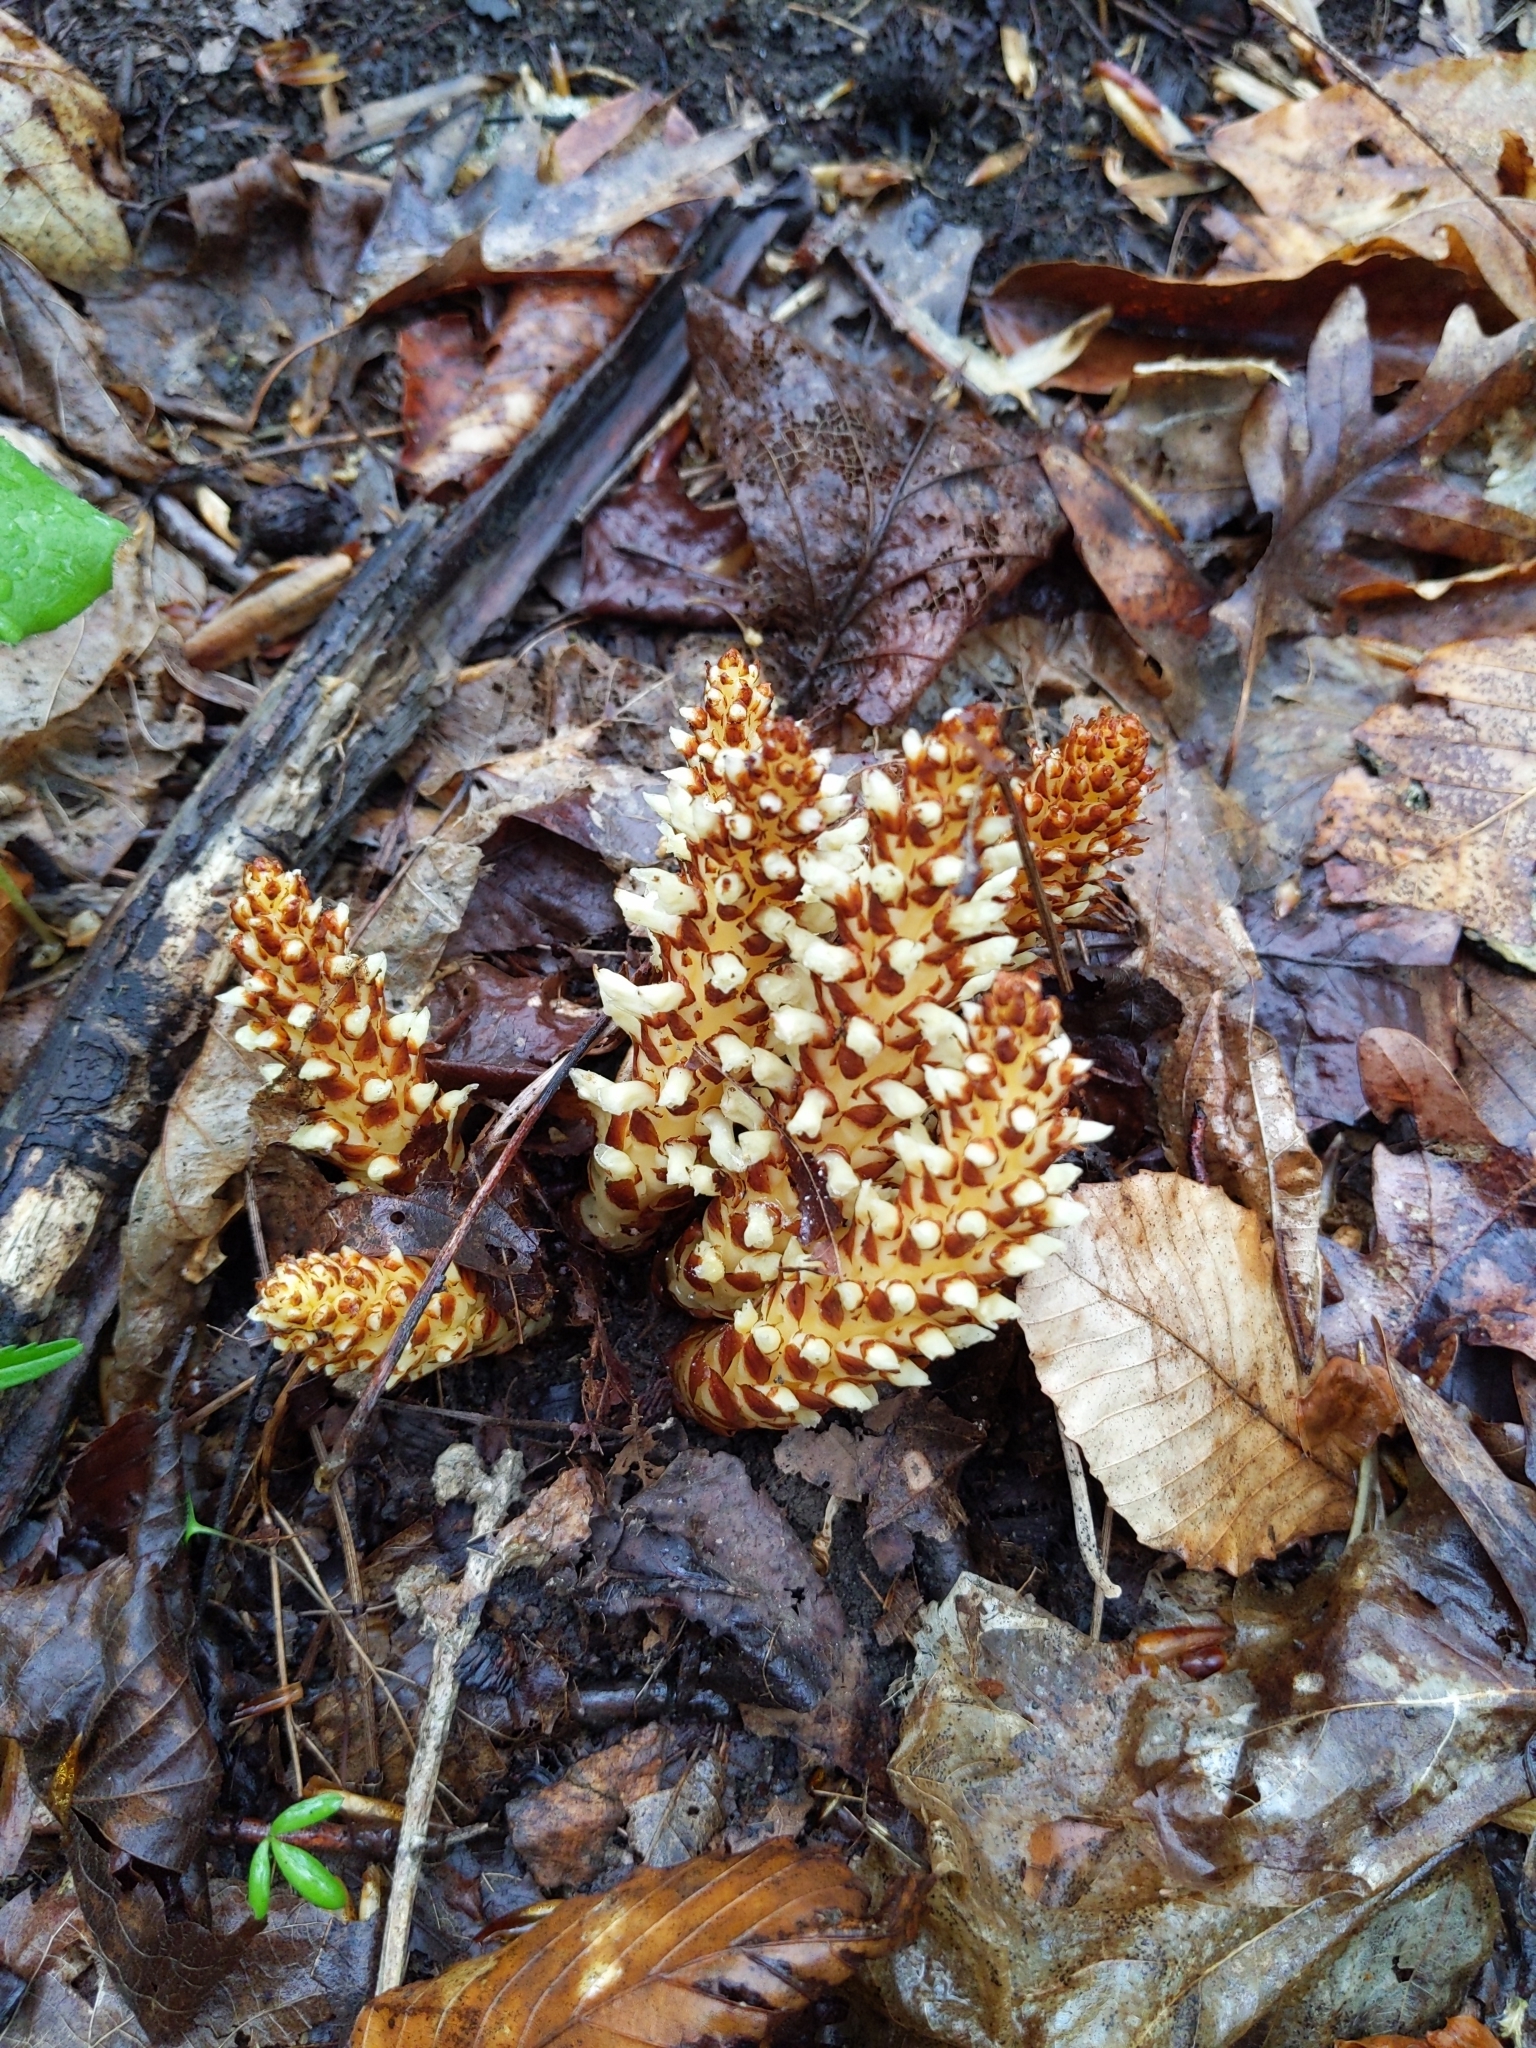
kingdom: Plantae
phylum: Tracheophyta
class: Magnoliopsida
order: Lamiales
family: Orobanchaceae
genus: Conopholis
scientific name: Conopholis americana
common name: American cancer-root
